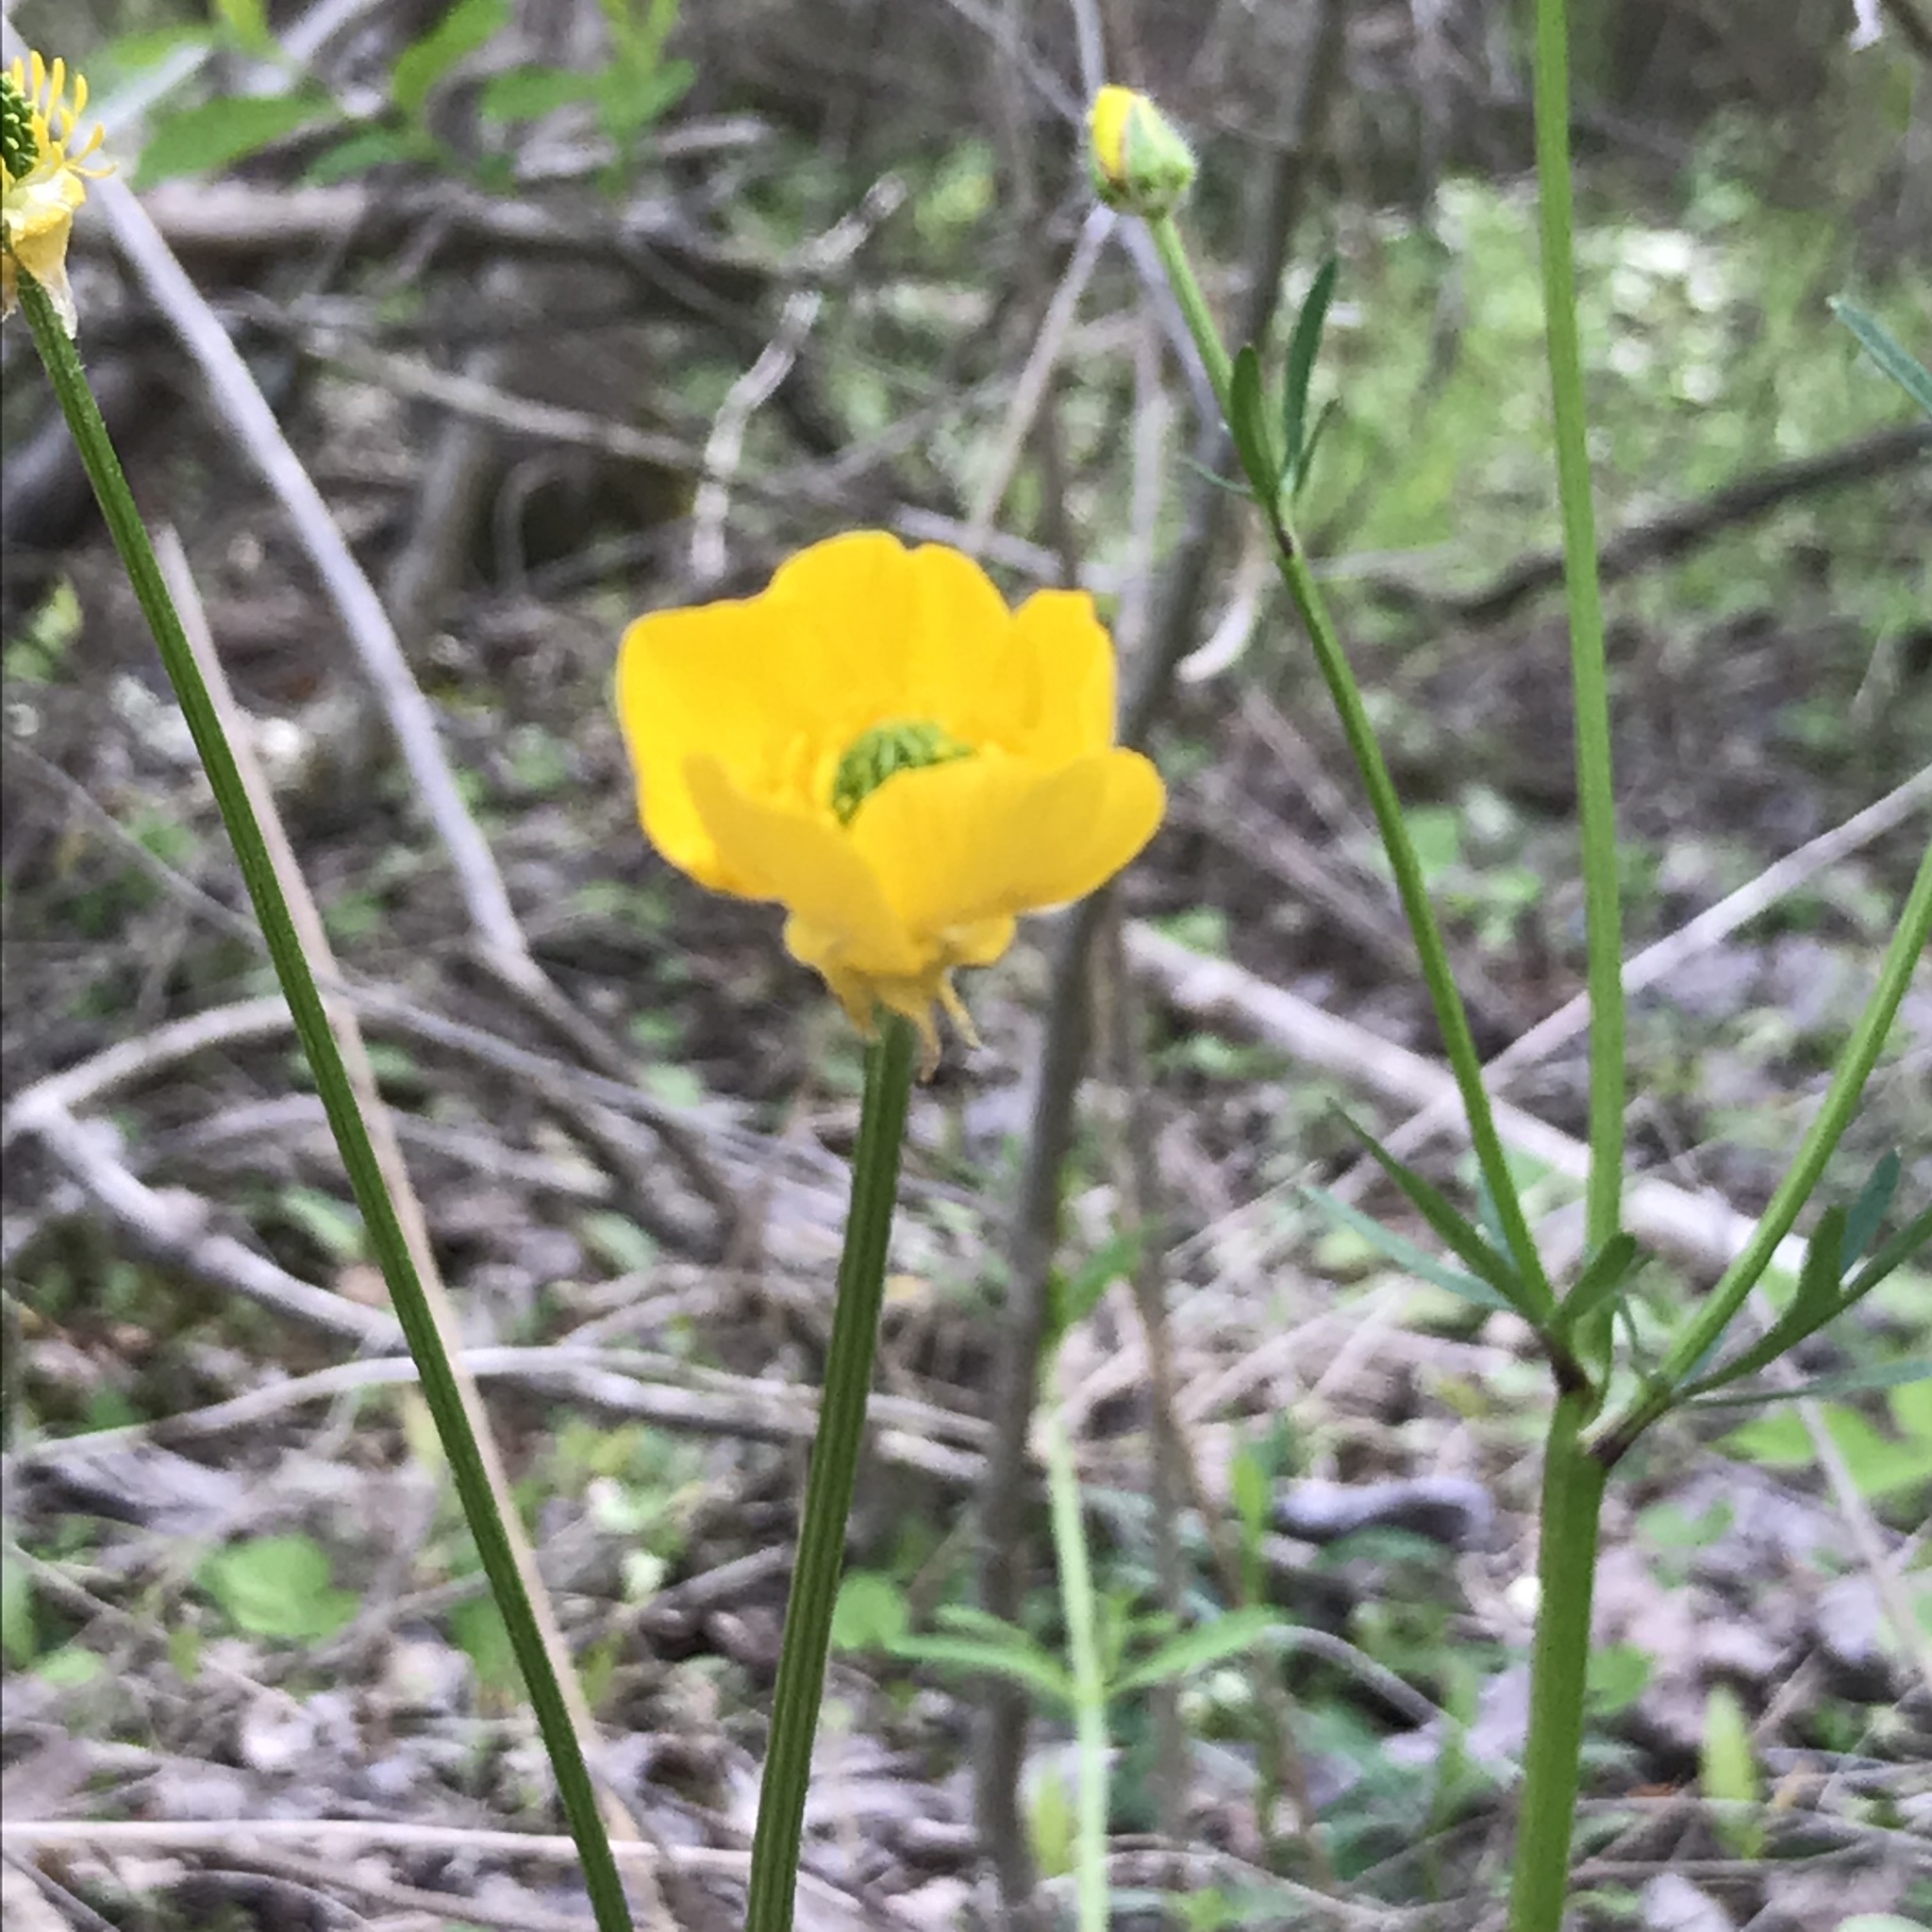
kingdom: Plantae
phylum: Tracheophyta
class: Magnoliopsida
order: Ranunculales
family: Ranunculaceae
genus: Ranunculus
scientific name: Ranunculus acris
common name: Meadow buttercup
